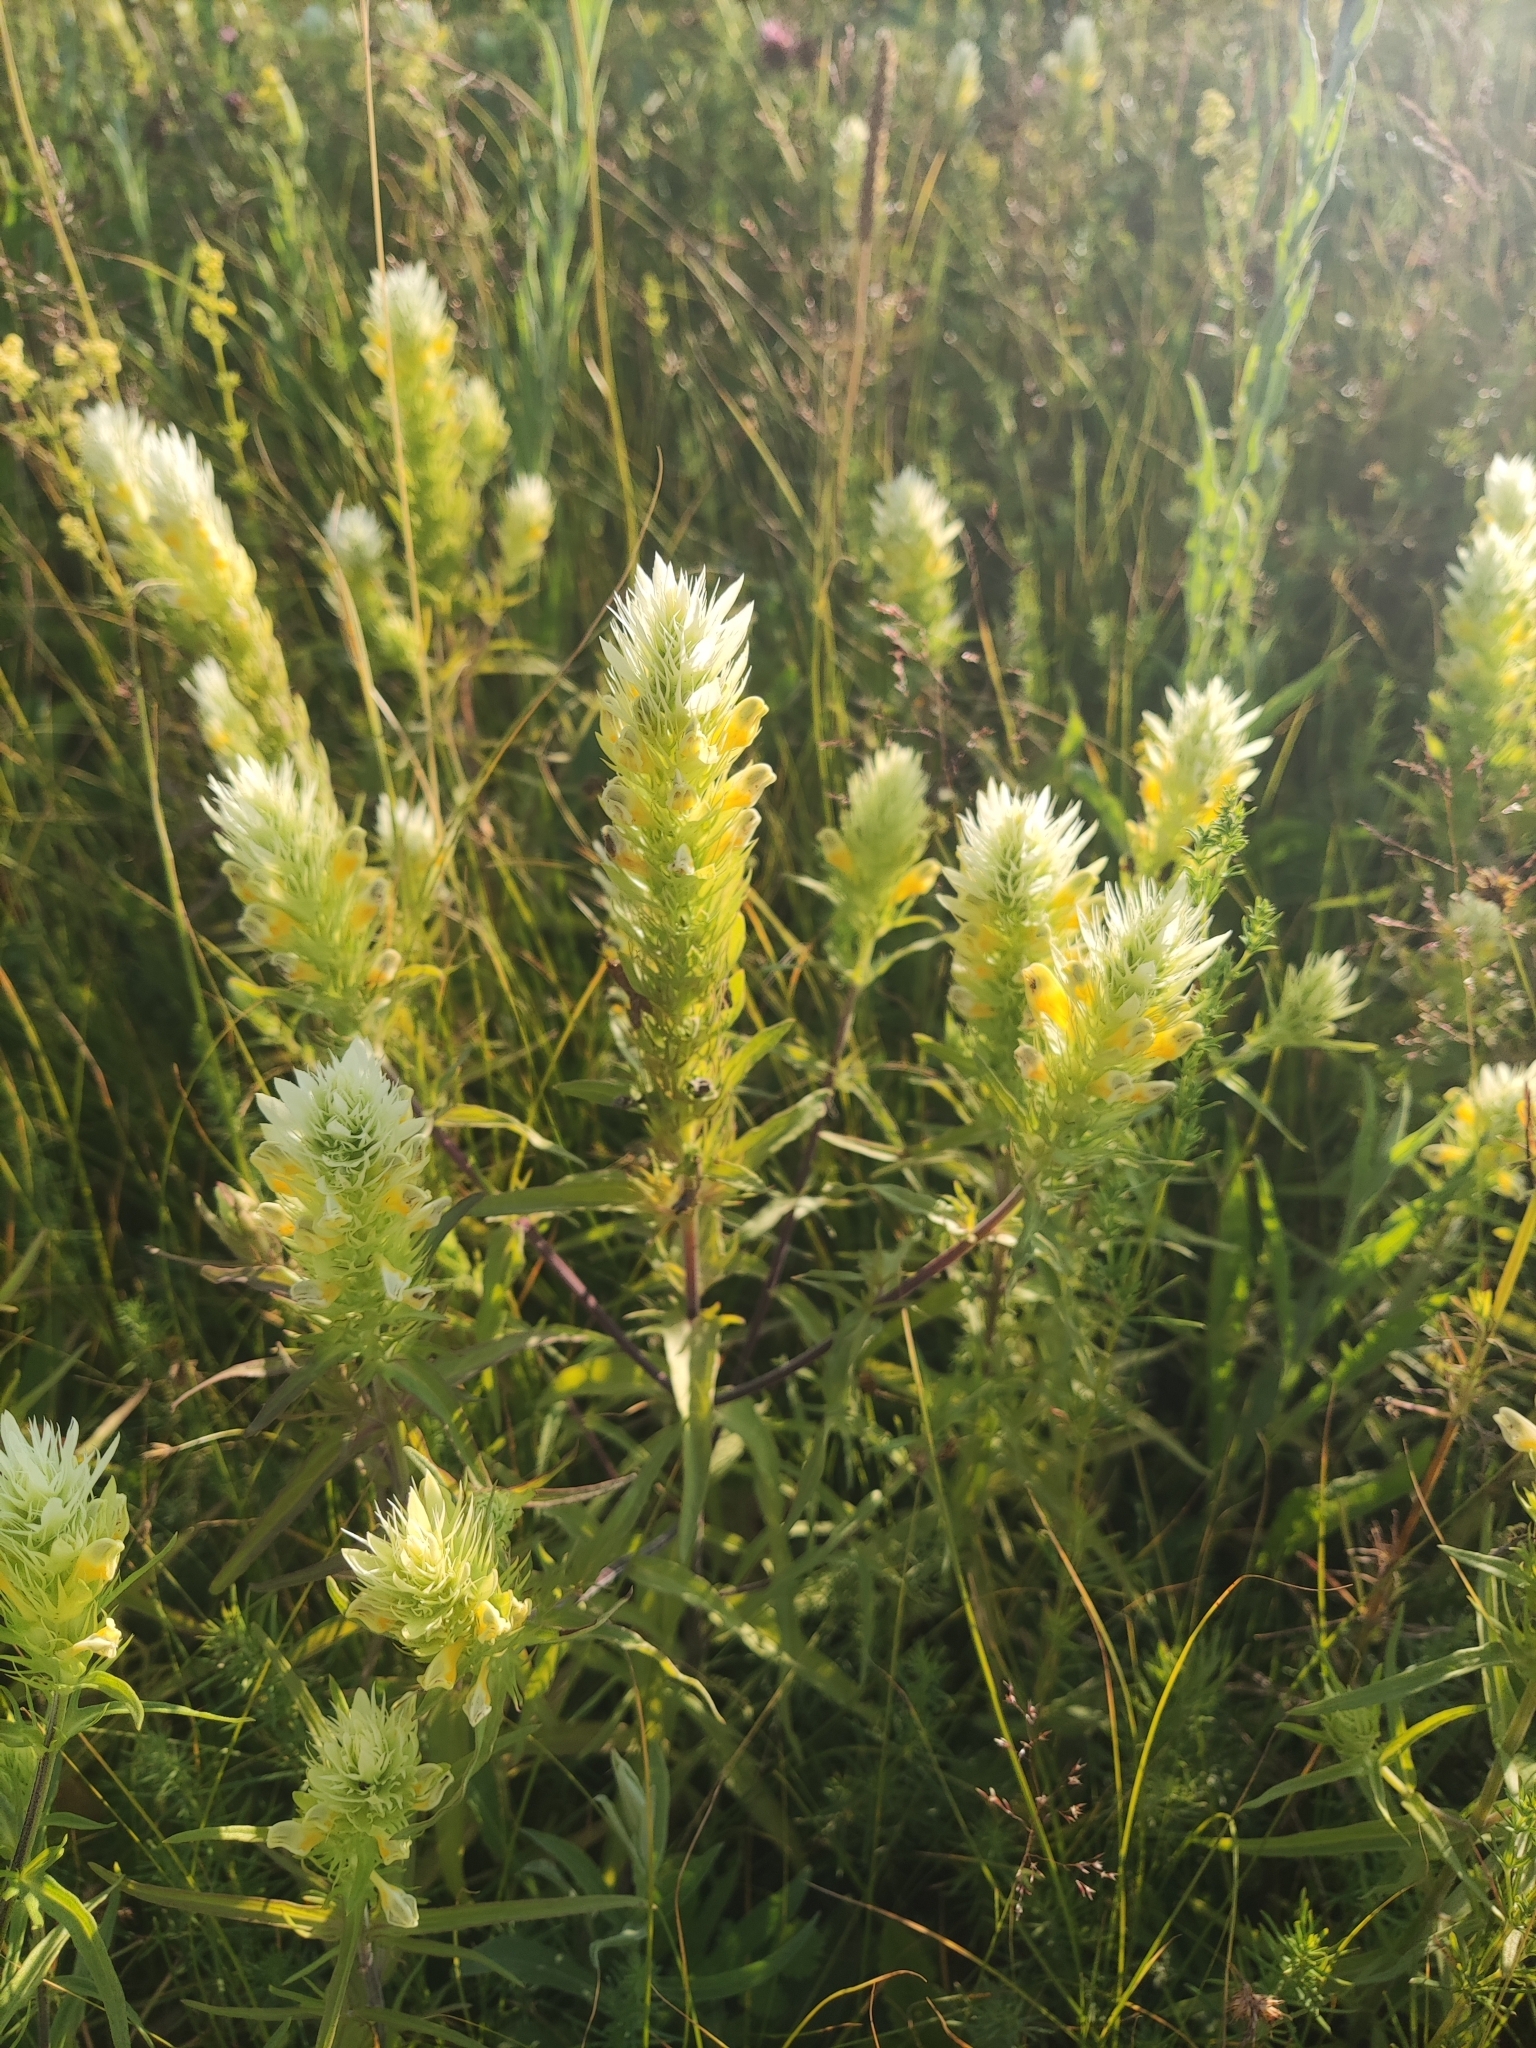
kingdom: Plantae
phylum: Tracheophyta
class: Magnoliopsida
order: Lamiales
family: Orobanchaceae
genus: Melampyrum
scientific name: Melampyrum arvense
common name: Field cow-wheat
